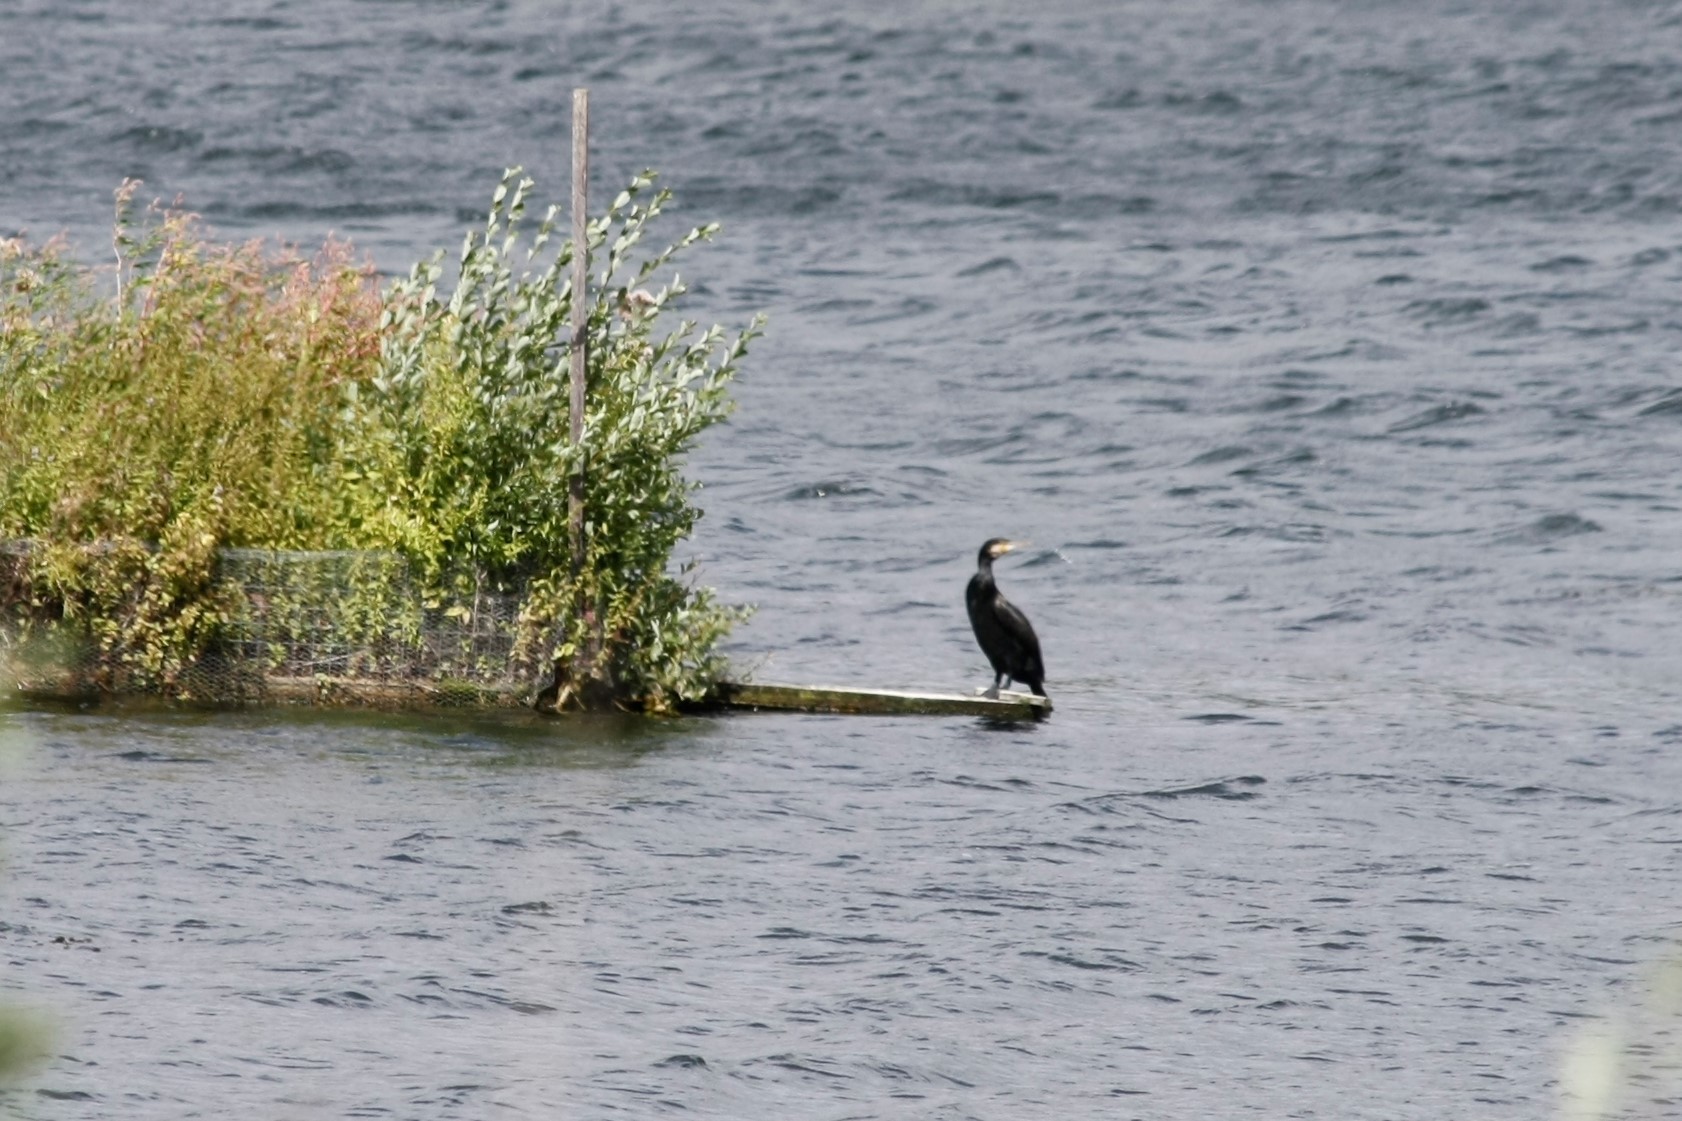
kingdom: Animalia
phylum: Chordata
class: Aves
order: Suliformes
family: Phalacrocoracidae
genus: Phalacrocorax
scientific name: Phalacrocorax carbo
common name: Great cormorant
